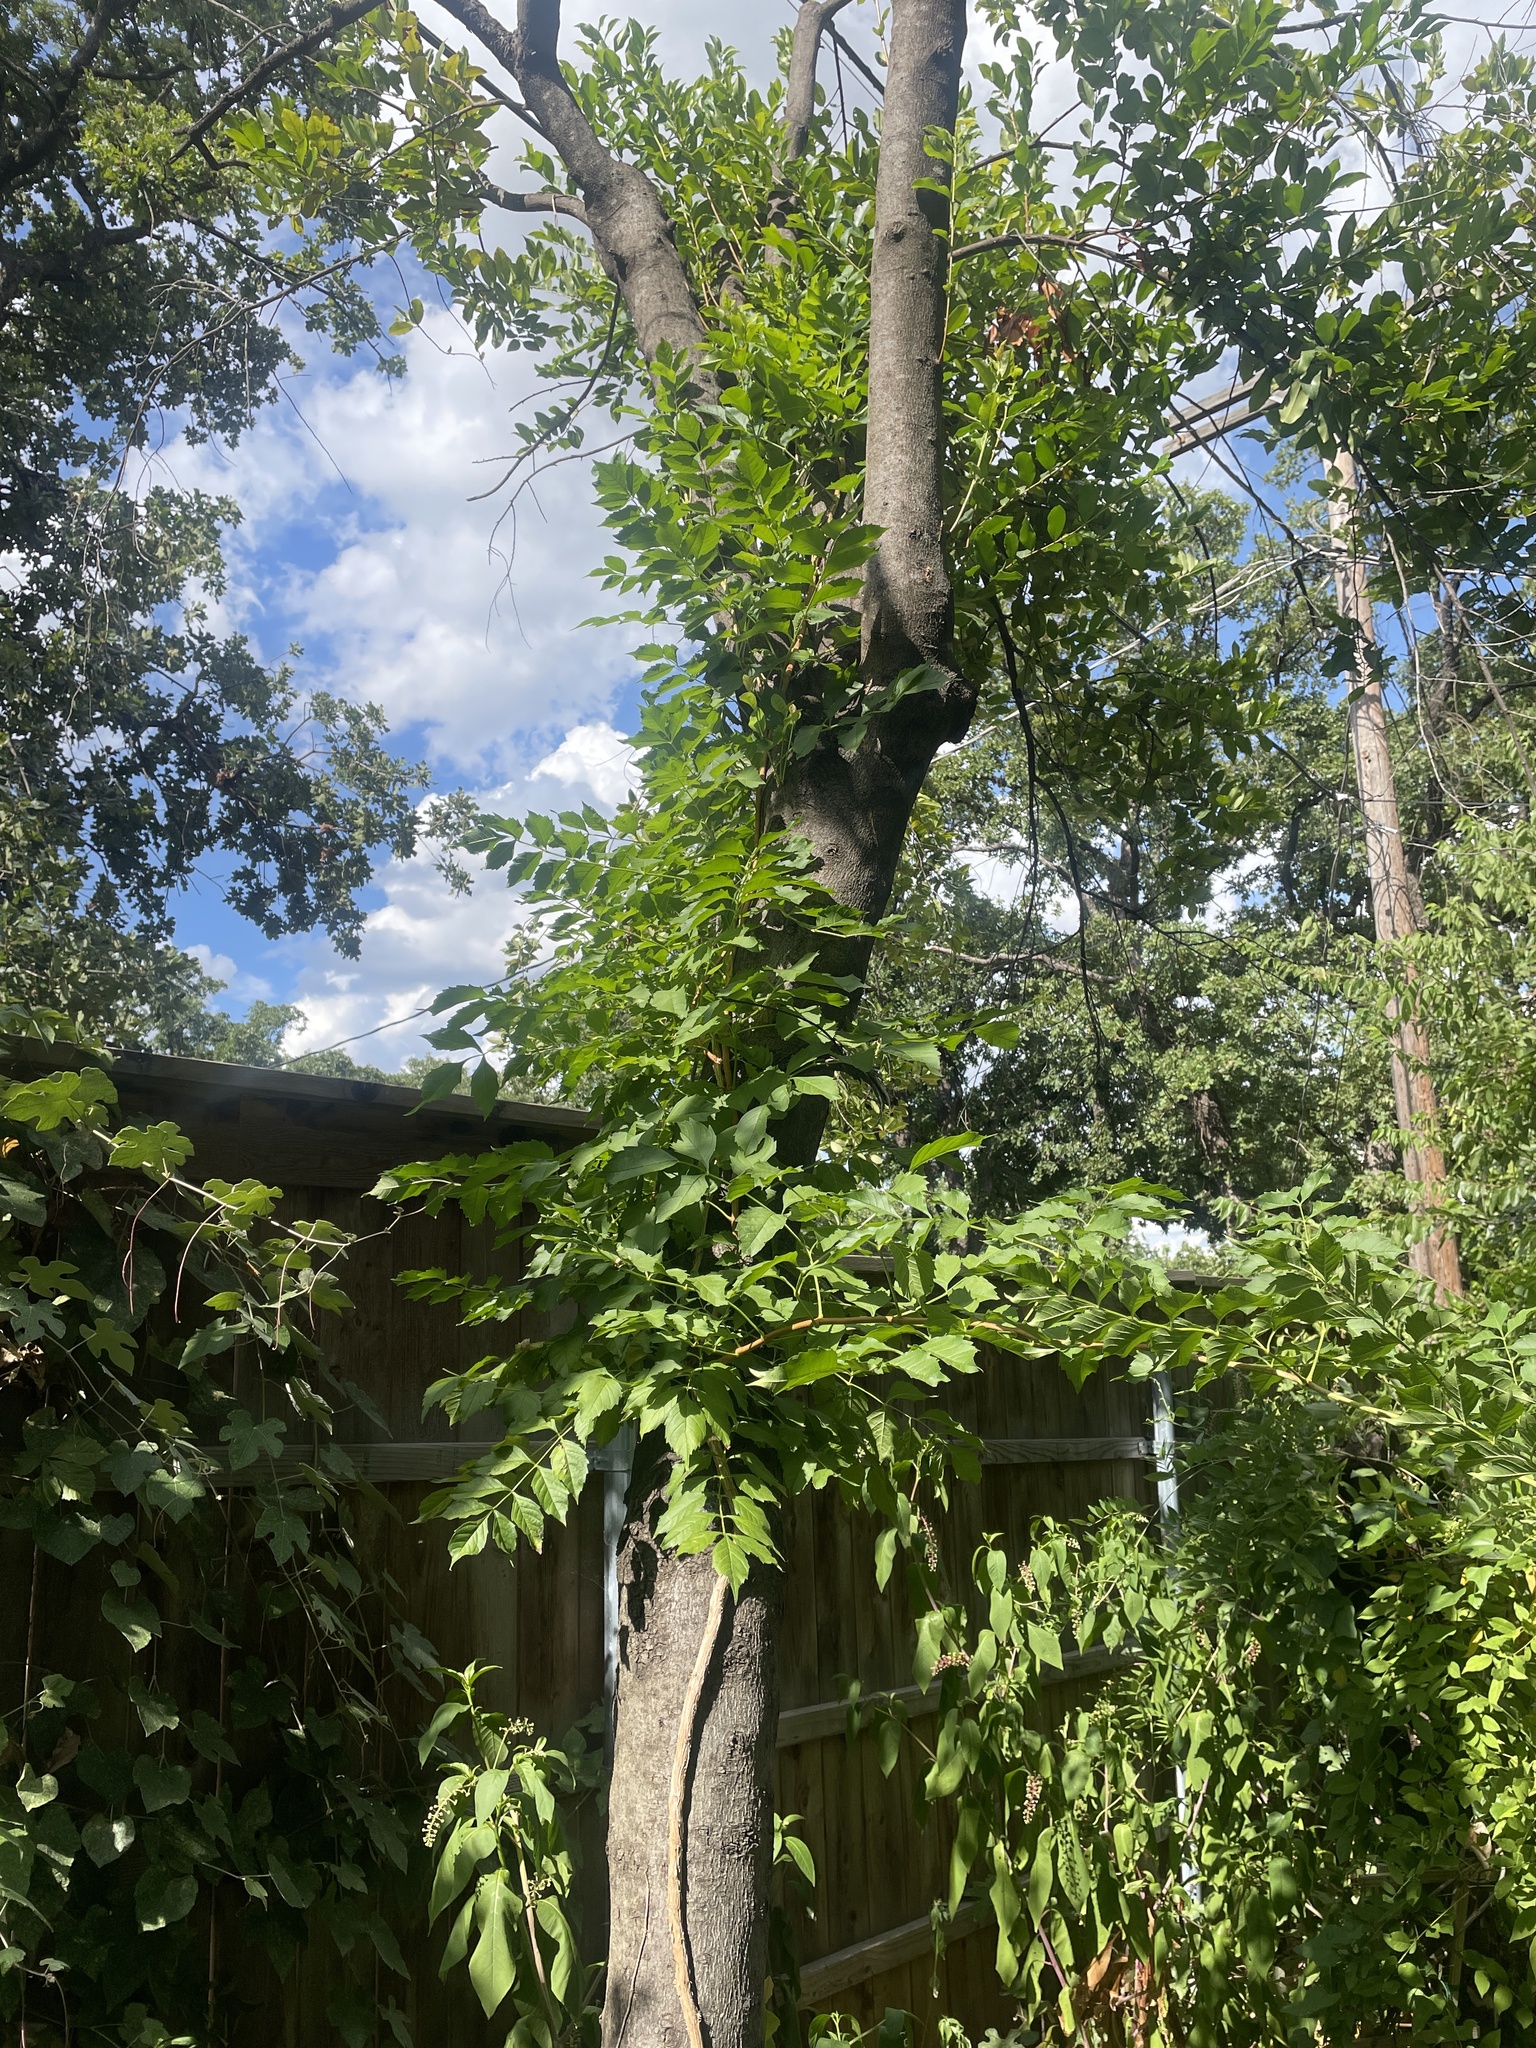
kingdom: Plantae
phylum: Tracheophyta
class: Magnoliopsida
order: Lamiales
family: Bignoniaceae
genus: Campsis
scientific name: Campsis radicans
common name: Trumpet-creeper
